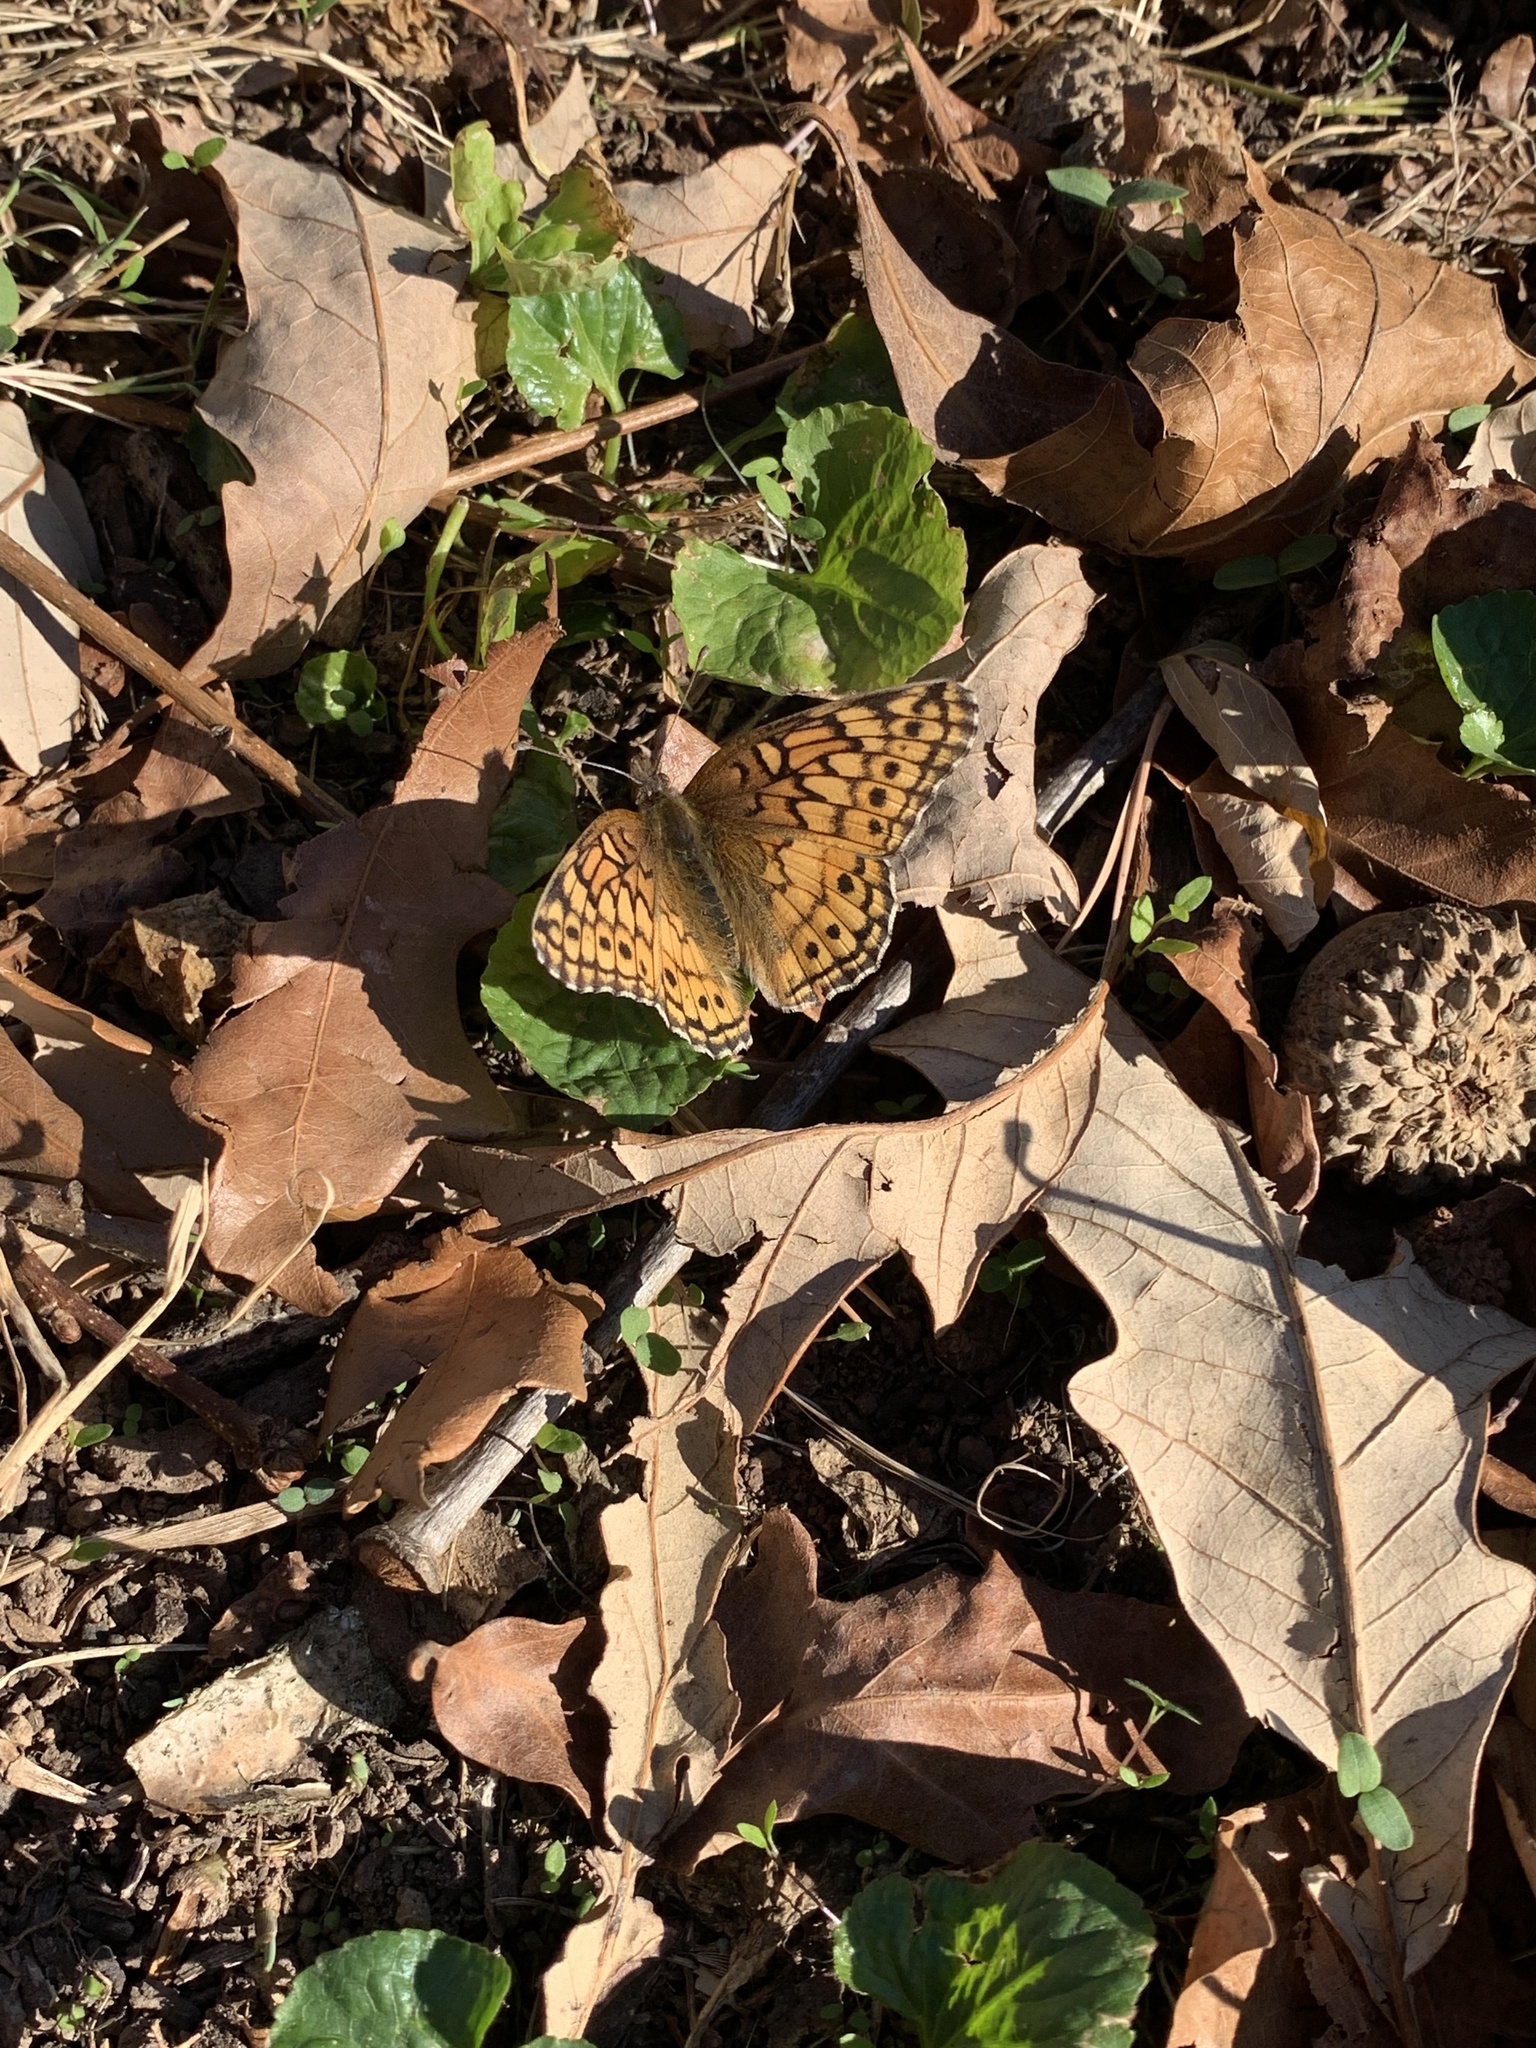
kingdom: Animalia
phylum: Arthropoda
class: Insecta
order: Lepidoptera
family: Nymphalidae
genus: Euptoieta
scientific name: Euptoieta claudia
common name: Variegated fritillary
